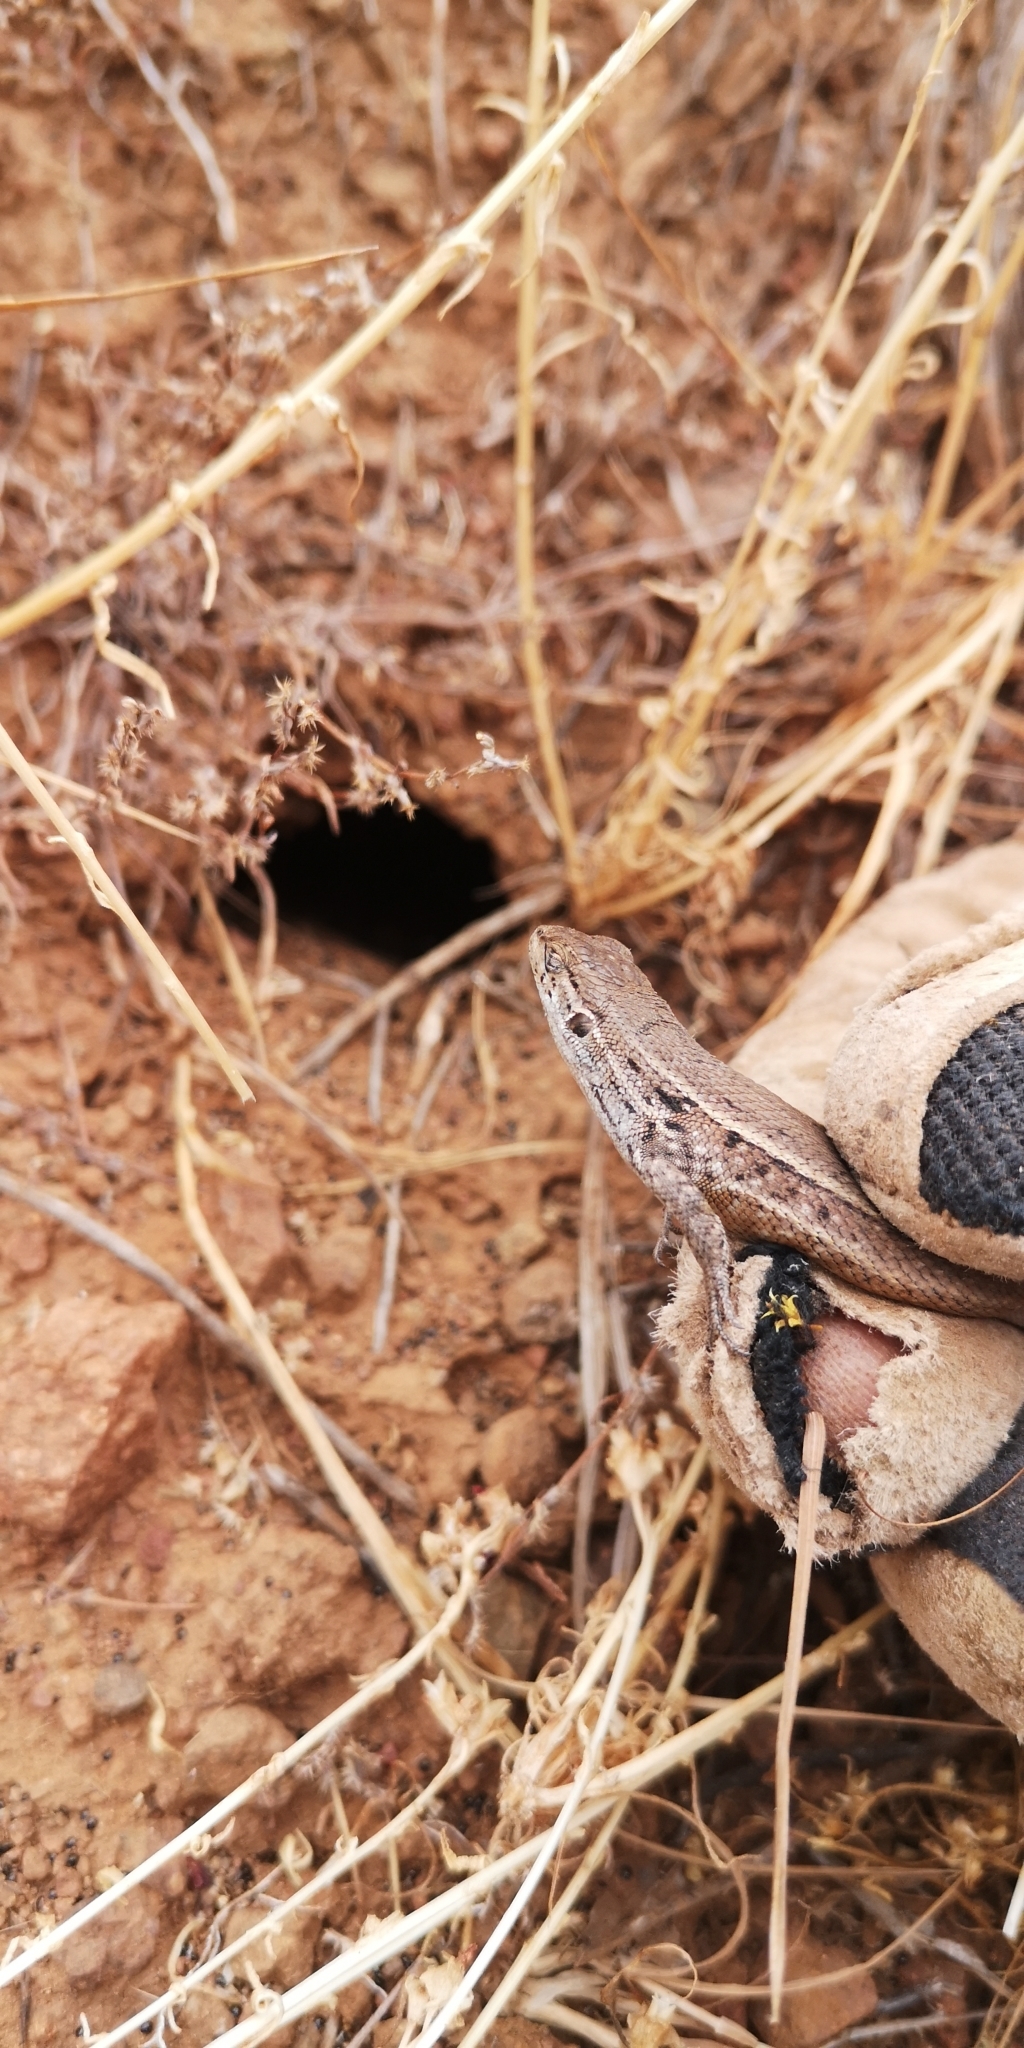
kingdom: Animalia
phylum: Chordata
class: Squamata
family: Liolaemidae
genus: Liolaemus
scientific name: Liolaemus lemniscatus
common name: Wreath tree iguana
